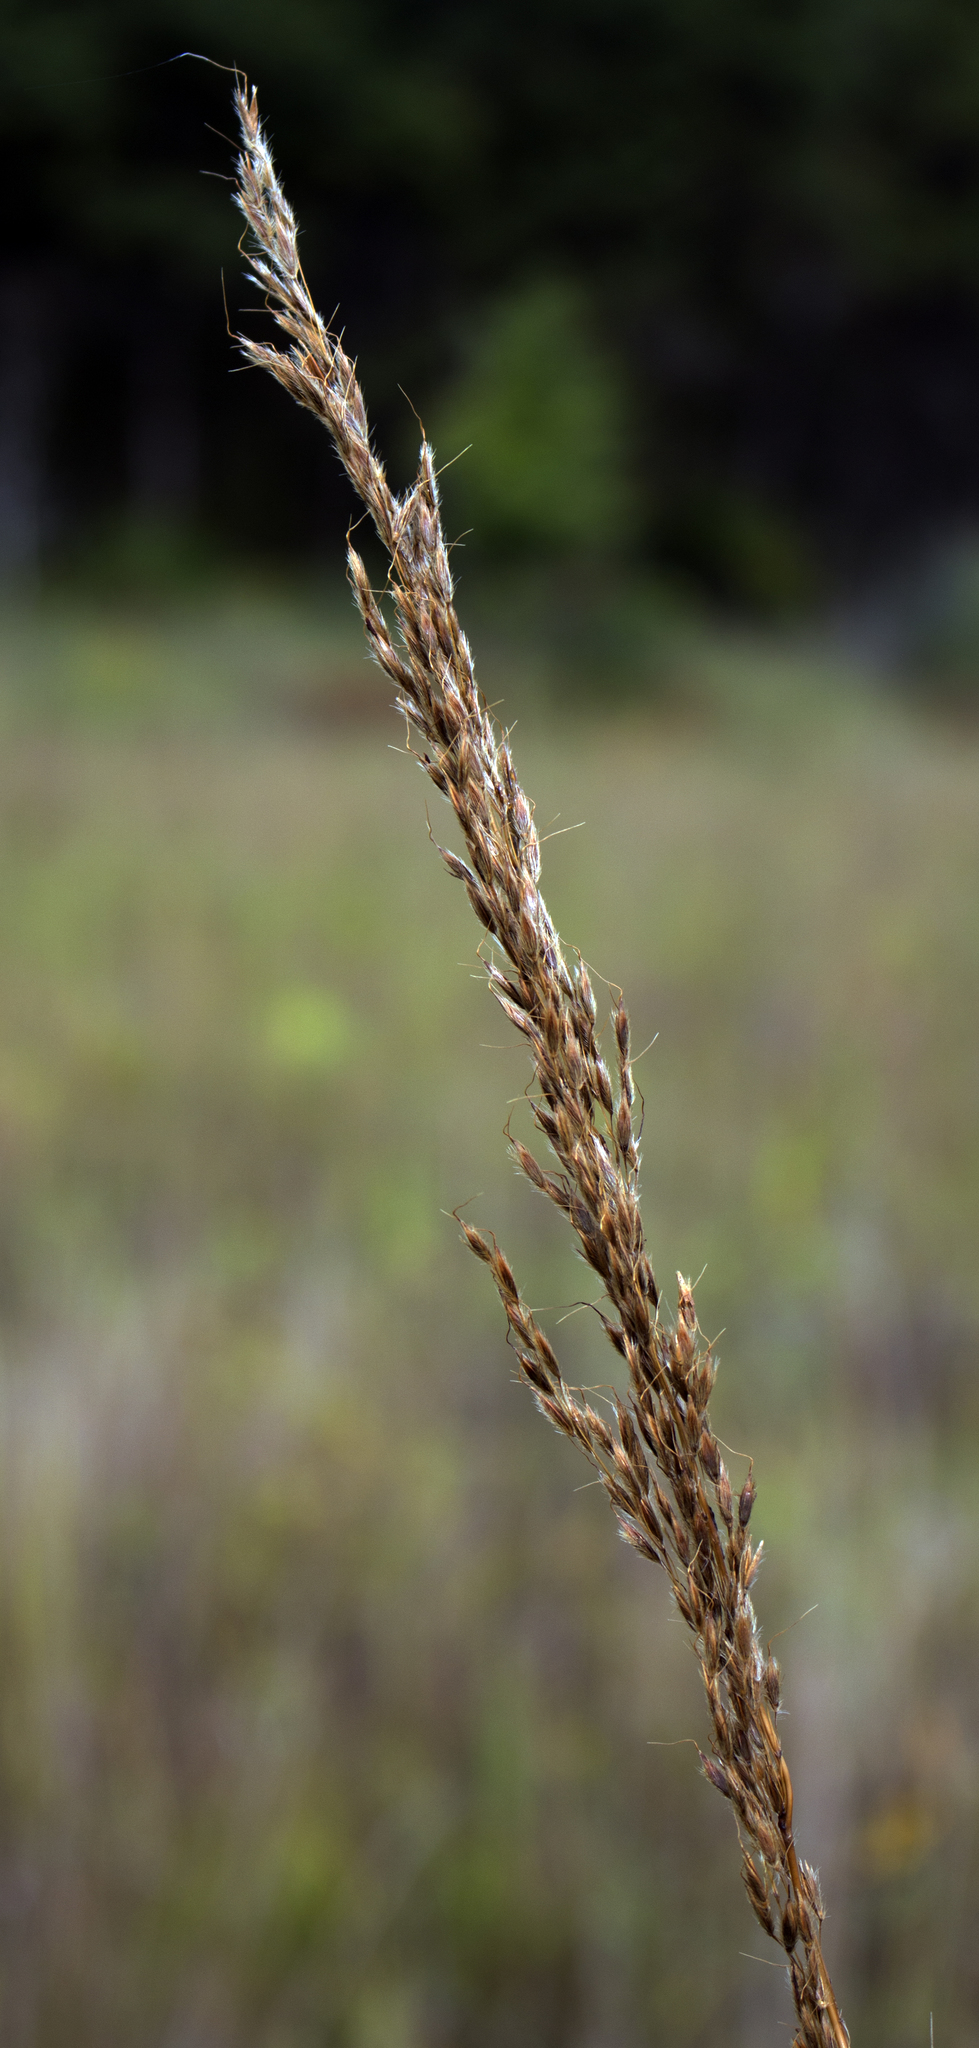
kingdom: Plantae
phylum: Tracheophyta
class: Liliopsida
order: Poales
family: Poaceae
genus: Sorghastrum
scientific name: Sorghastrum nutans
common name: Indian grass
